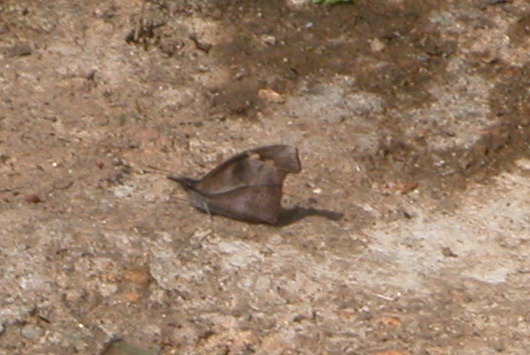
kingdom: Animalia
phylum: Arthropoda
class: Insecta
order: Lepidoptera
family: Nymphalidae
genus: Libythea
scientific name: Libythea myrrha
